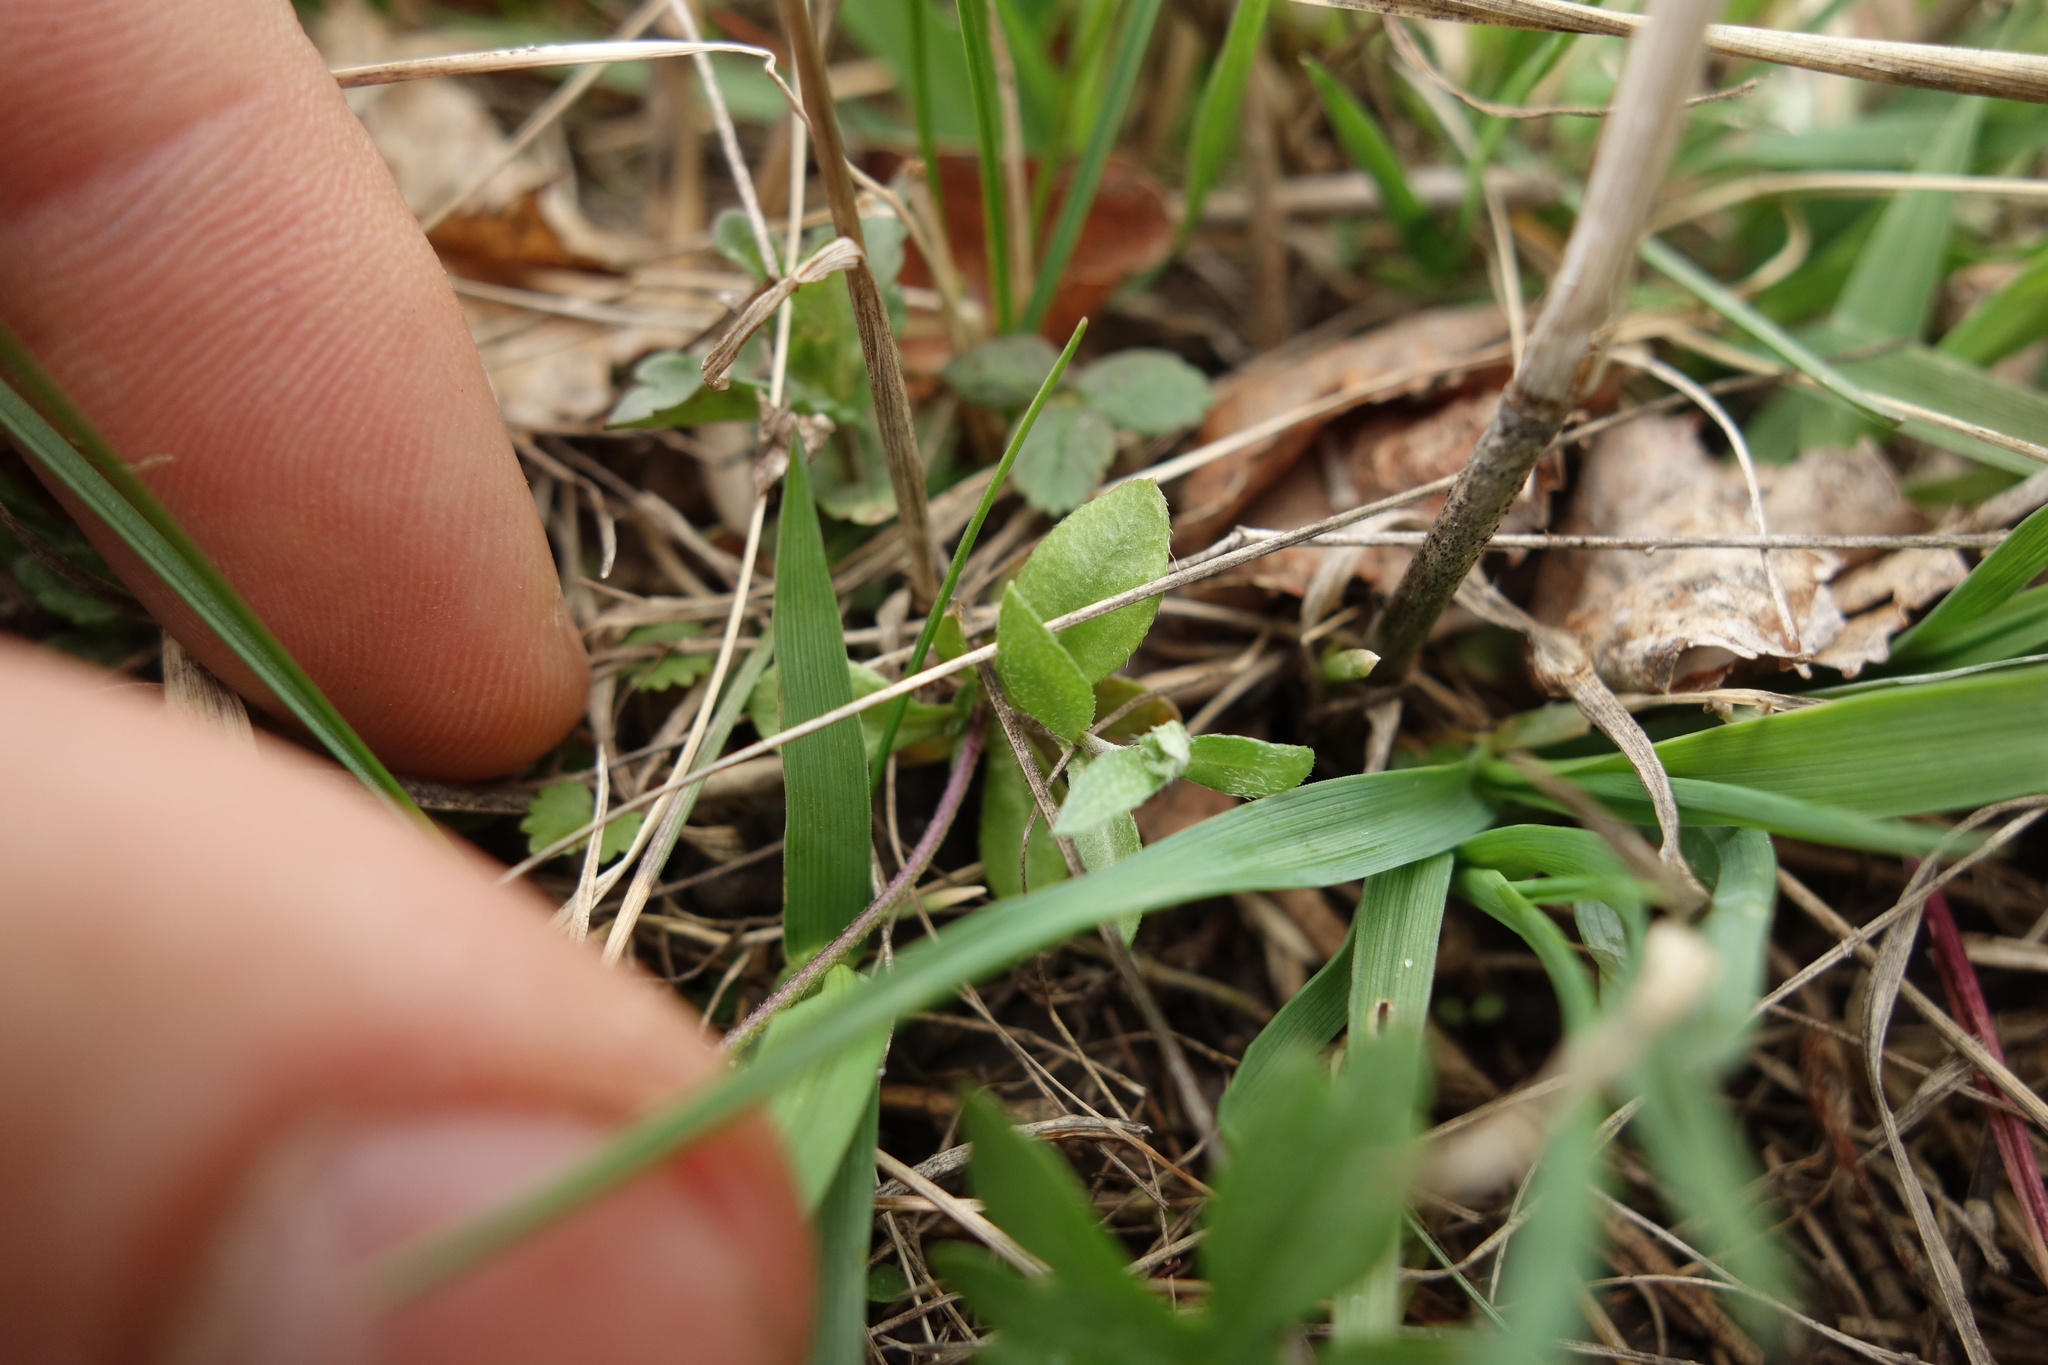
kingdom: Plantae
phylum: Tracheophyta
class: Magnoliopsida
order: Brassicales
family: Brassicaceae
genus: Draba
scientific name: Draba sibirica
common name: Siberian draba
